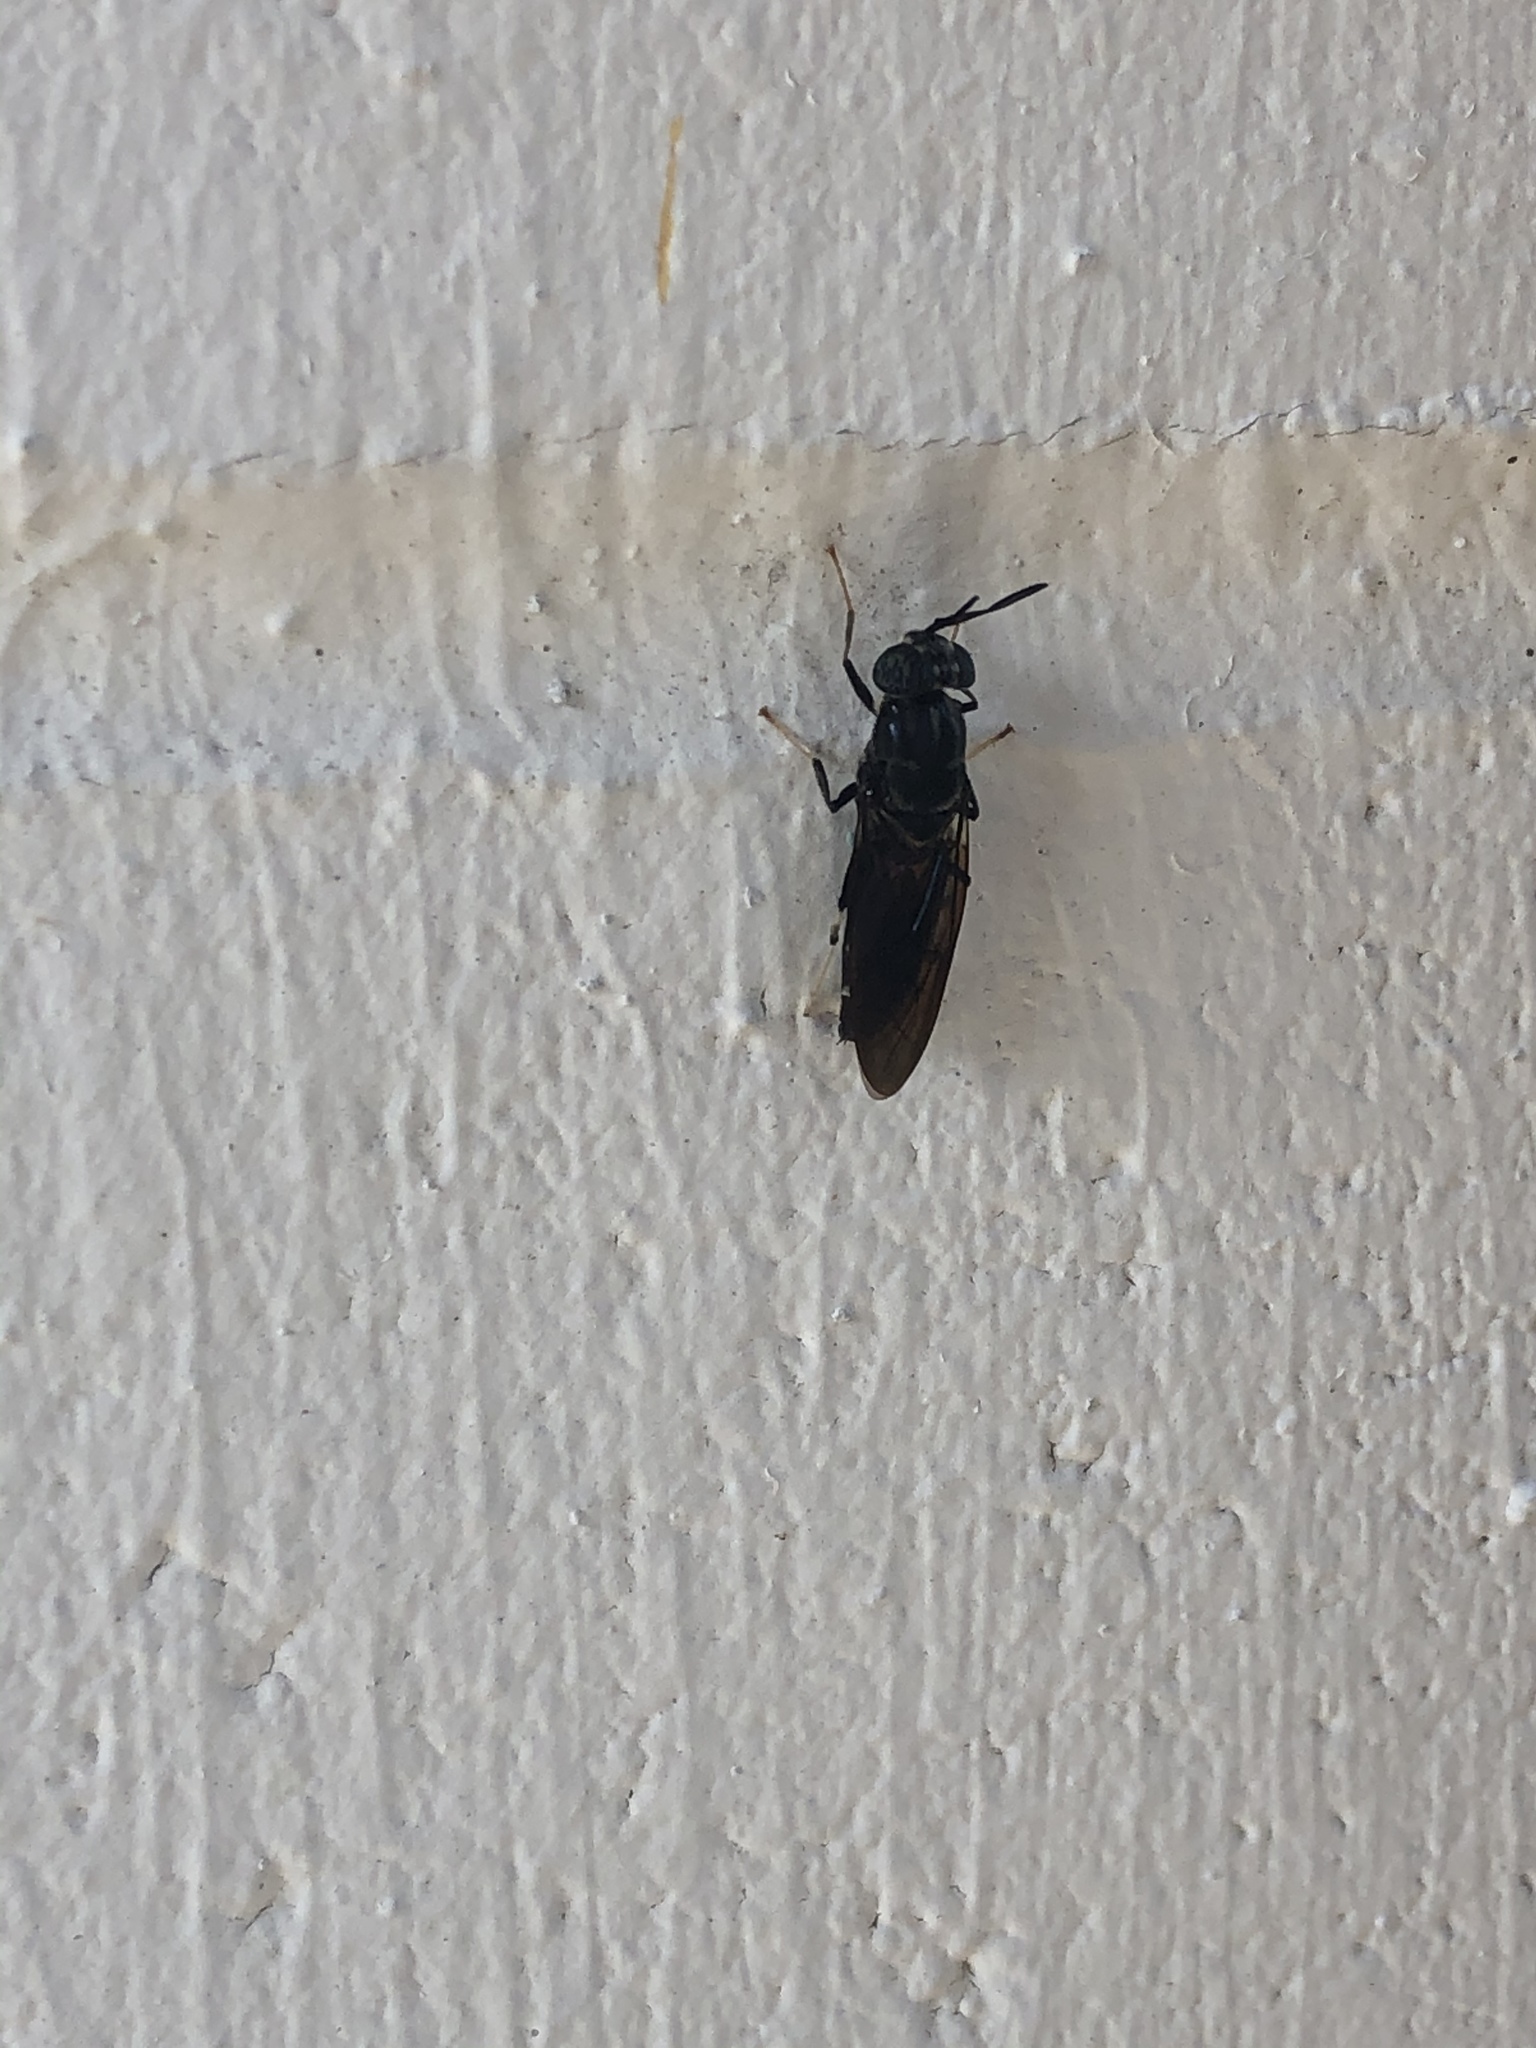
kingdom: Animalia
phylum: Arthropoda
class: Insecta
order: Diptera
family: Stratiomyidae
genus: Hermetia
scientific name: Hermetia illucens
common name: Black soldier fly
